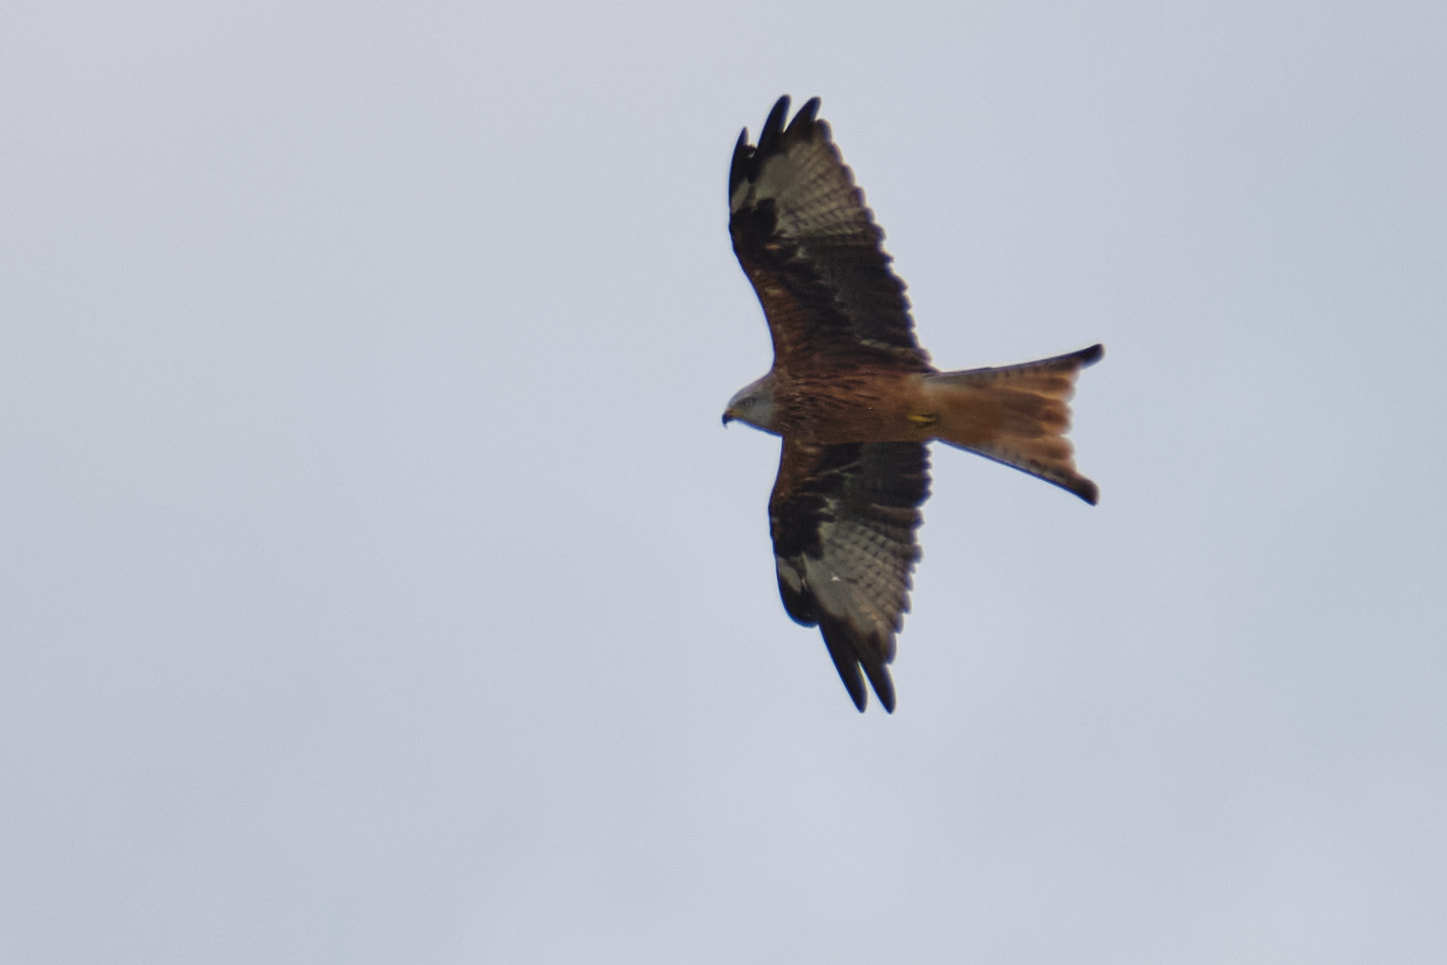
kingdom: Animalia
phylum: Chordata
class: Aves
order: Accipitriformes
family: Accipitridae
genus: Milvus
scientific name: Milvus milvus
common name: Red kite
